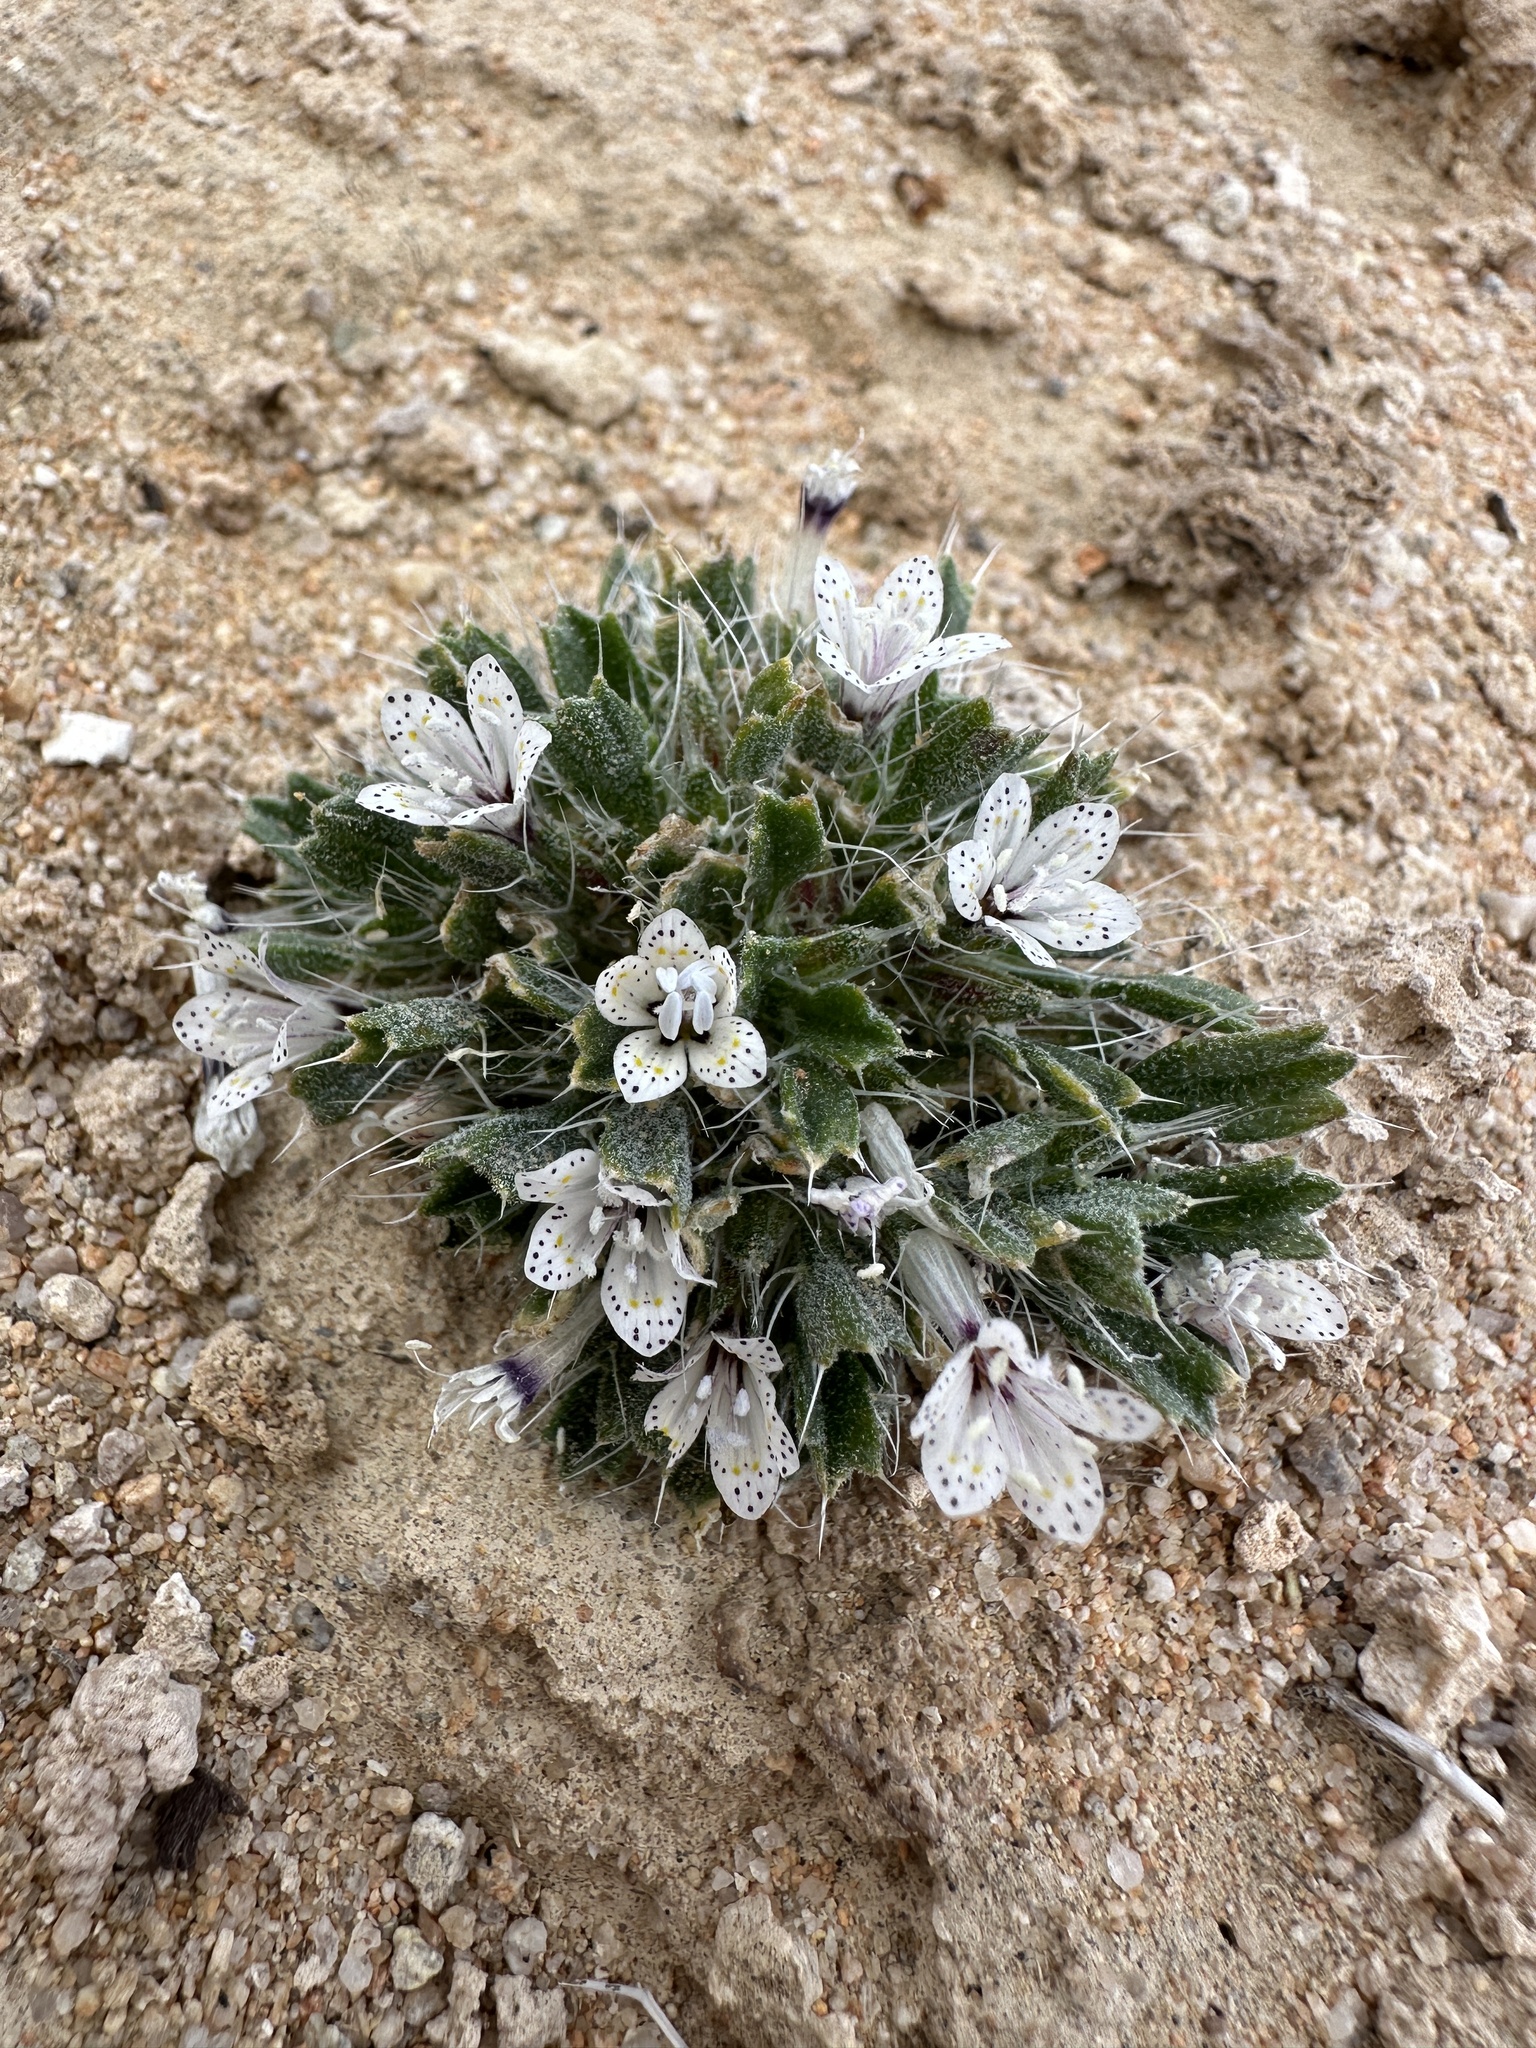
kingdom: Plantae
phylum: Tracheophyta
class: Magnoliopsida
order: Ericales
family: Polemoniaceae
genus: Langloisia
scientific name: Langloisia setosissima
